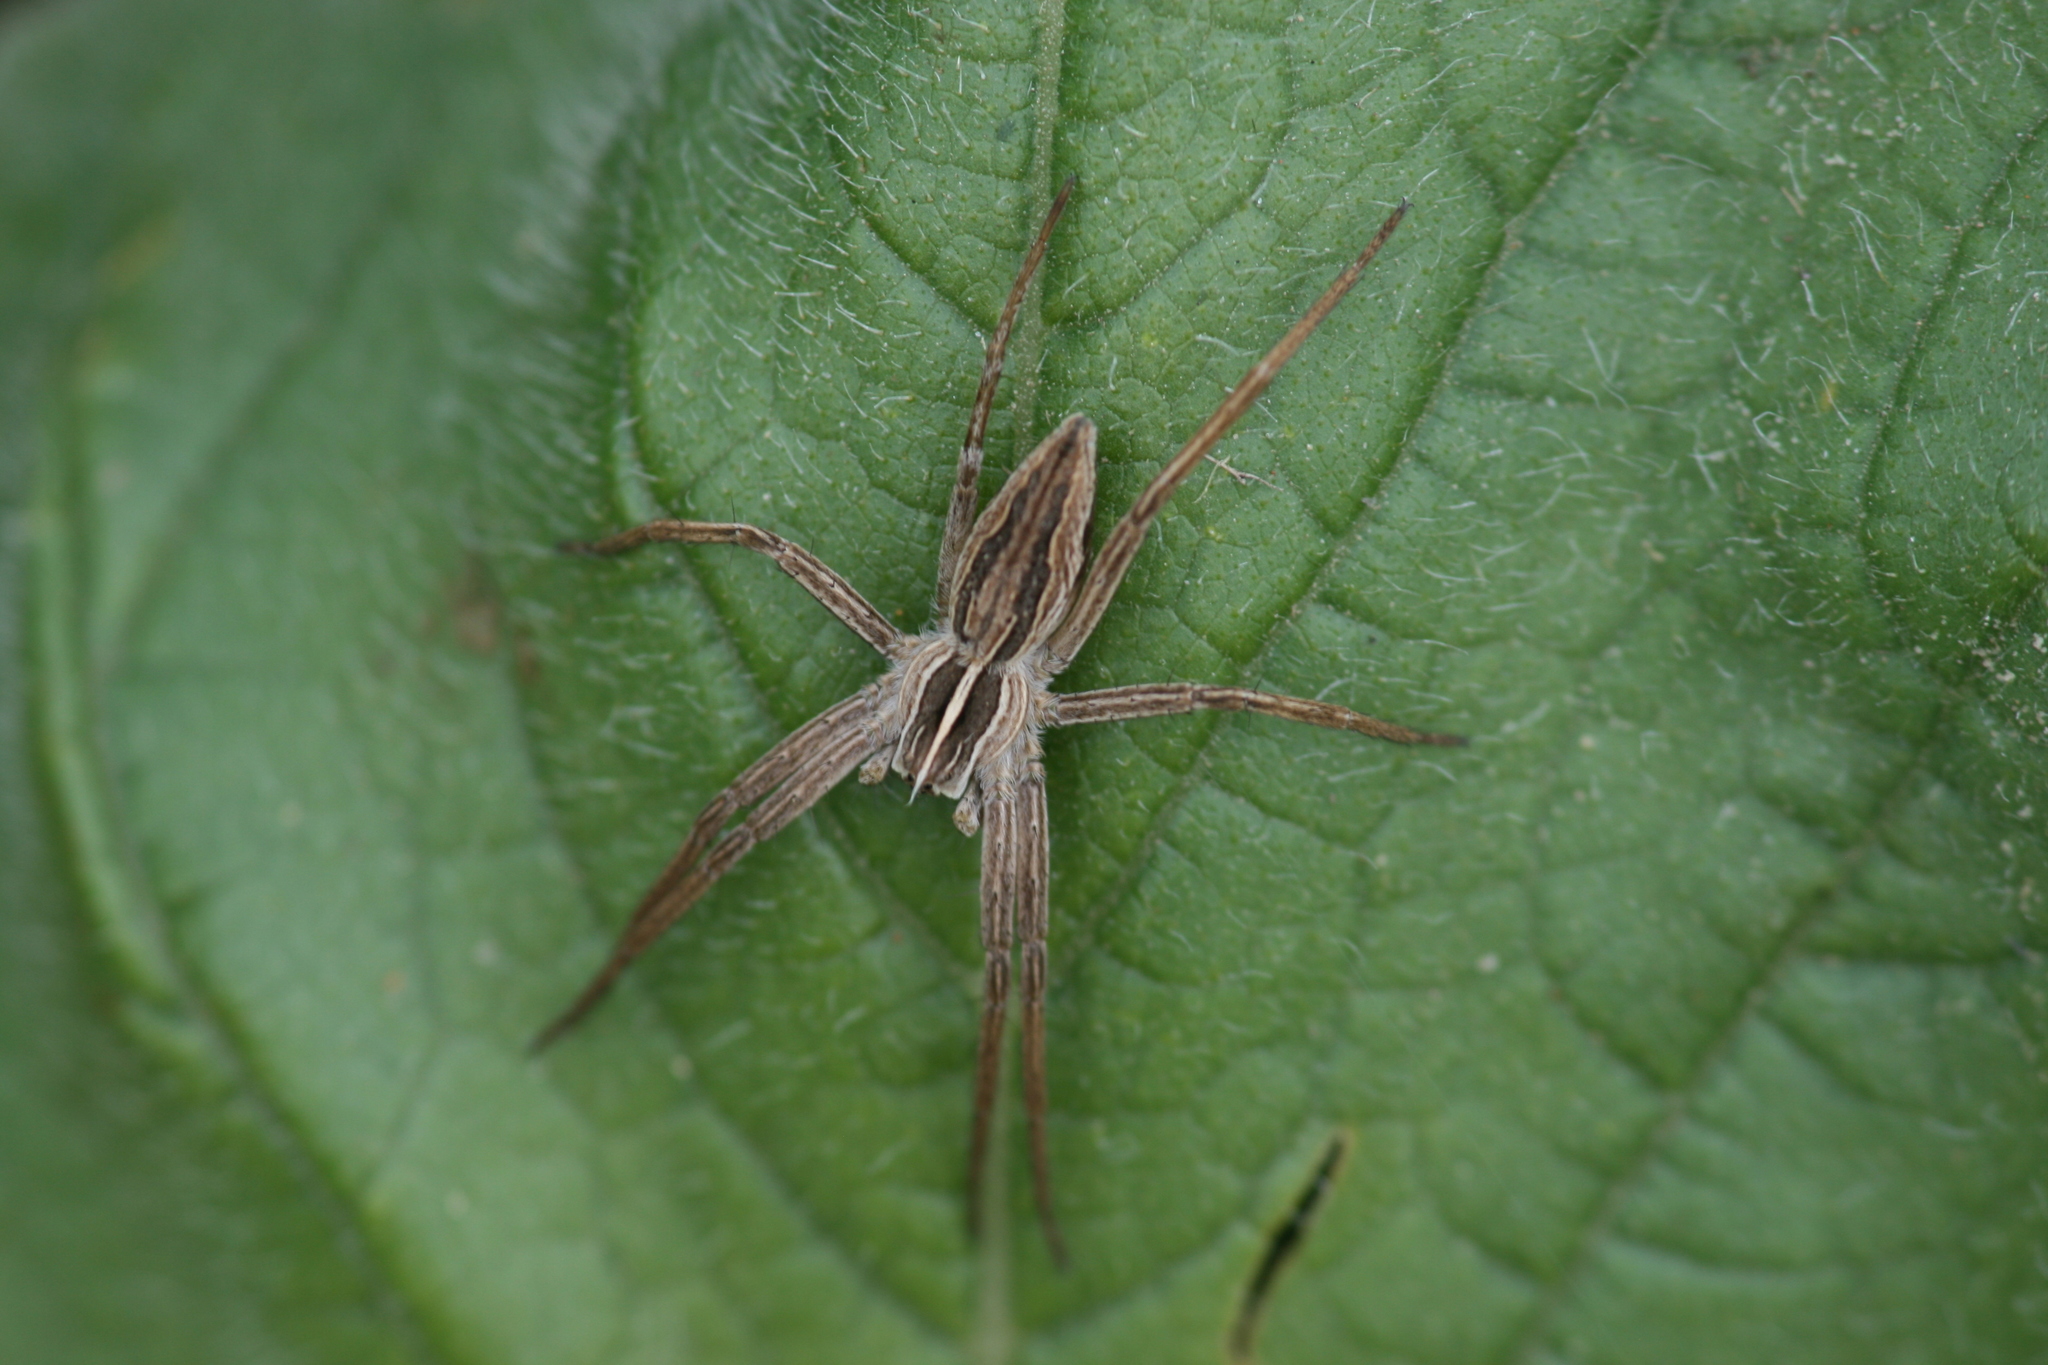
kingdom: Animalia
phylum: Arthropoda
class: Arachnida
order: Araneae
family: Pisauridae
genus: Pisaura
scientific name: Pisaura mirabilis
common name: Tent spider
